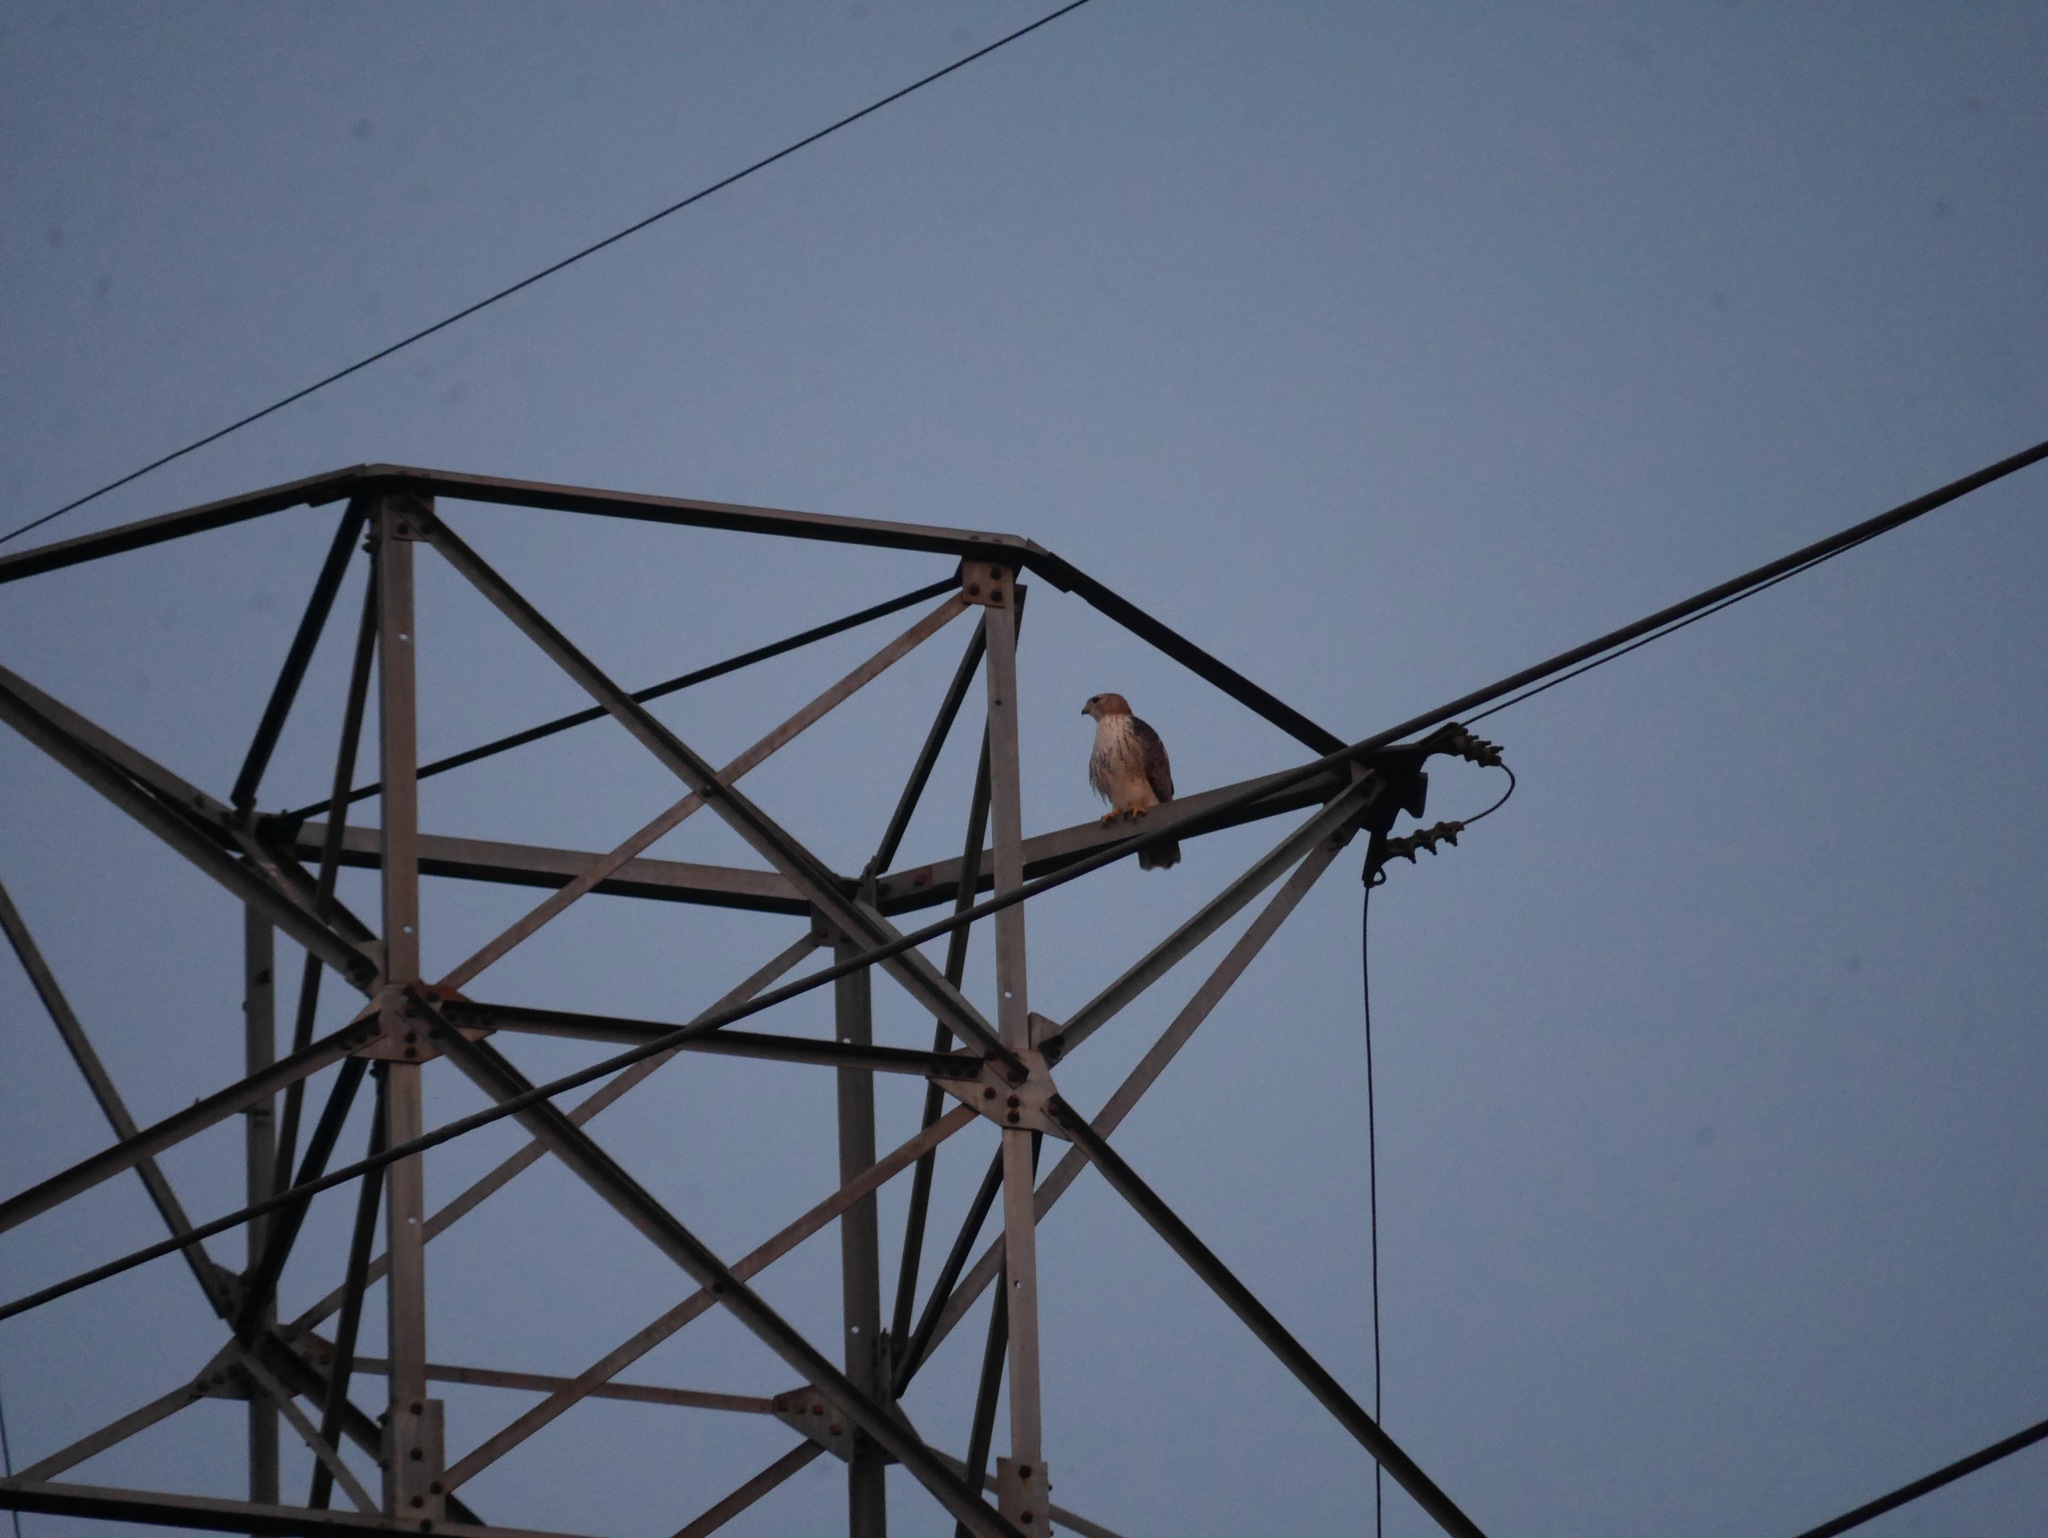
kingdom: Animalia
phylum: Chordata
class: Aves
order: Accipitriformes
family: Accipitridae
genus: Buteo
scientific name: Buteo jamaicensis
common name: Red-tailed hawk
